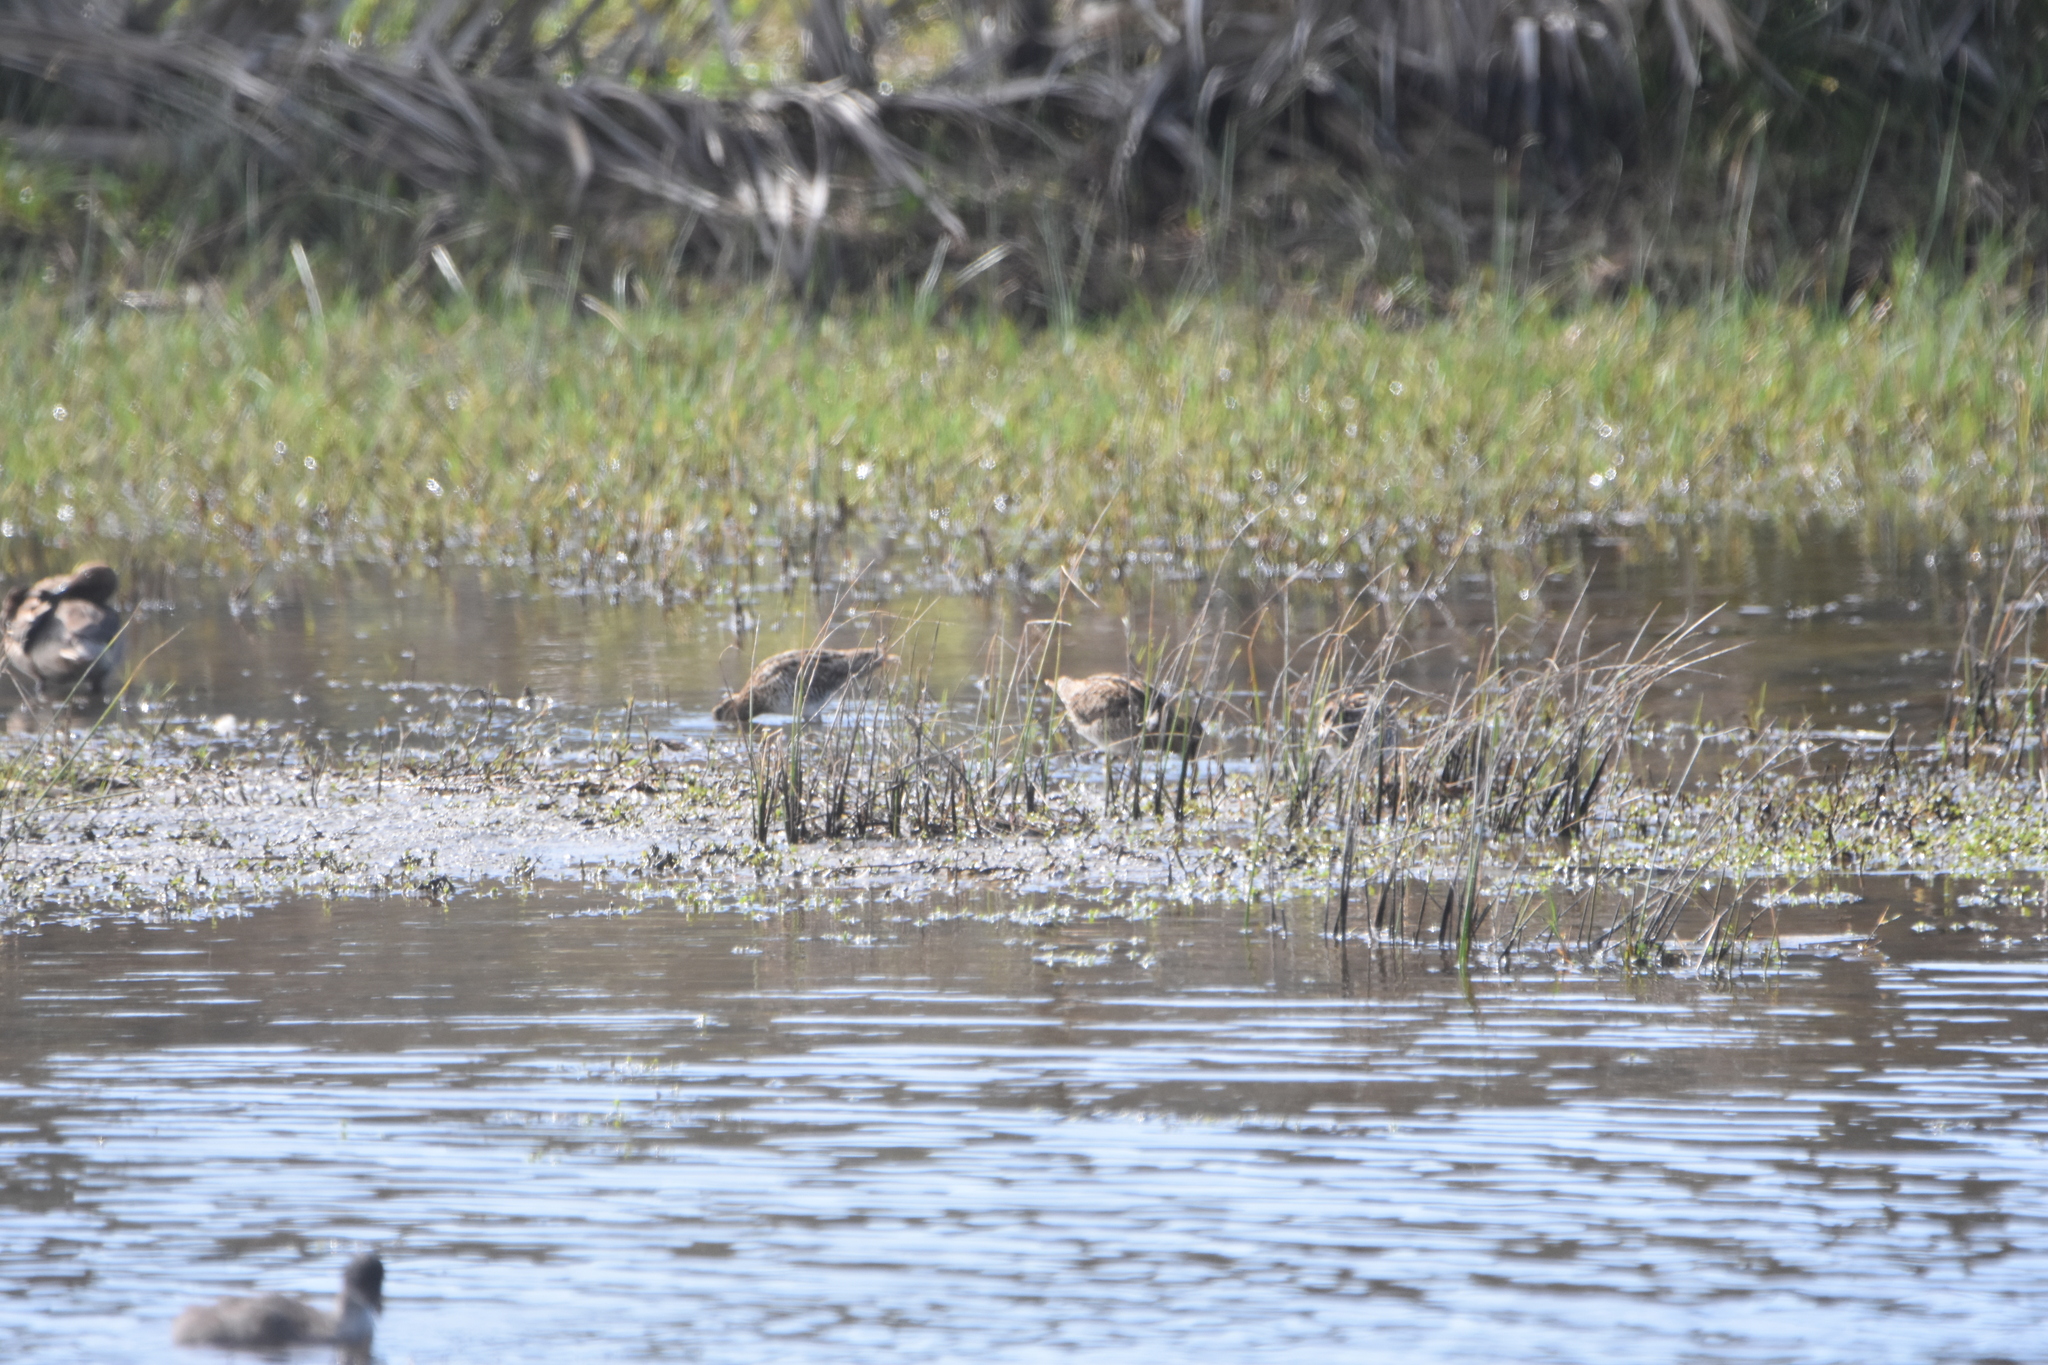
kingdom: Animalia
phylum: Chordata
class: Aves
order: Anseriformes
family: Anatidae
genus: Anas
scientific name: Anas georgica
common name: Yellow-billed pintail
